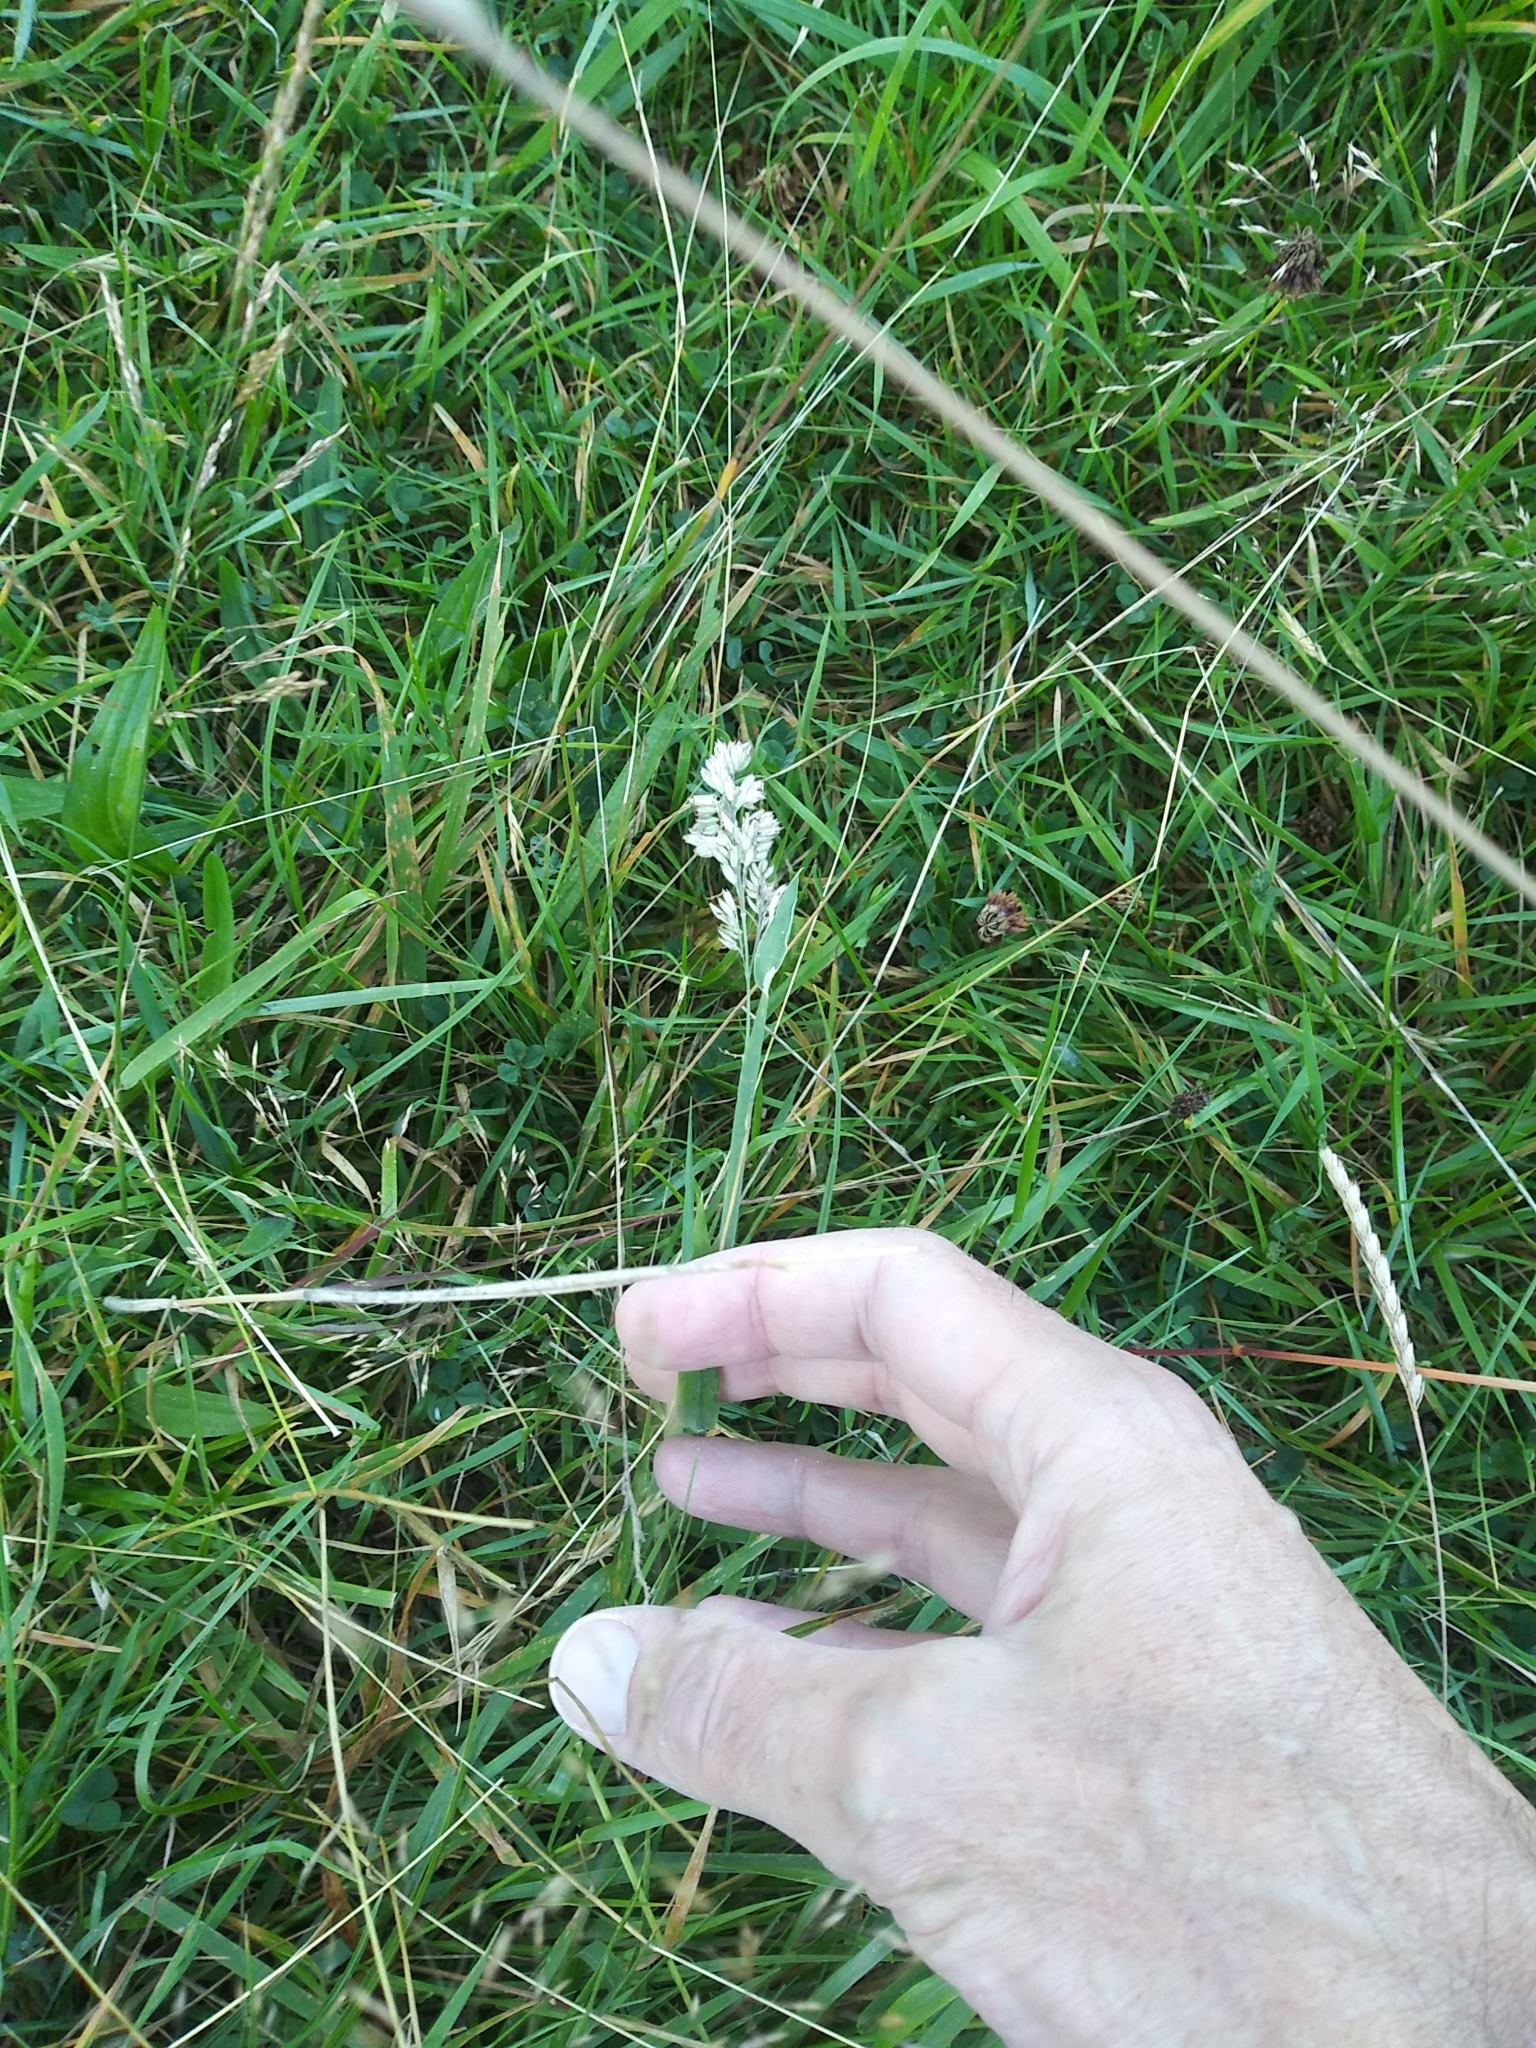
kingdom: Plantae
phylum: Tracheophyta
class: Liliopsida
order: Poales
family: Poaceae
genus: Holcus
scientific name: Holcus lanatus
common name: Yorkshire-fog
